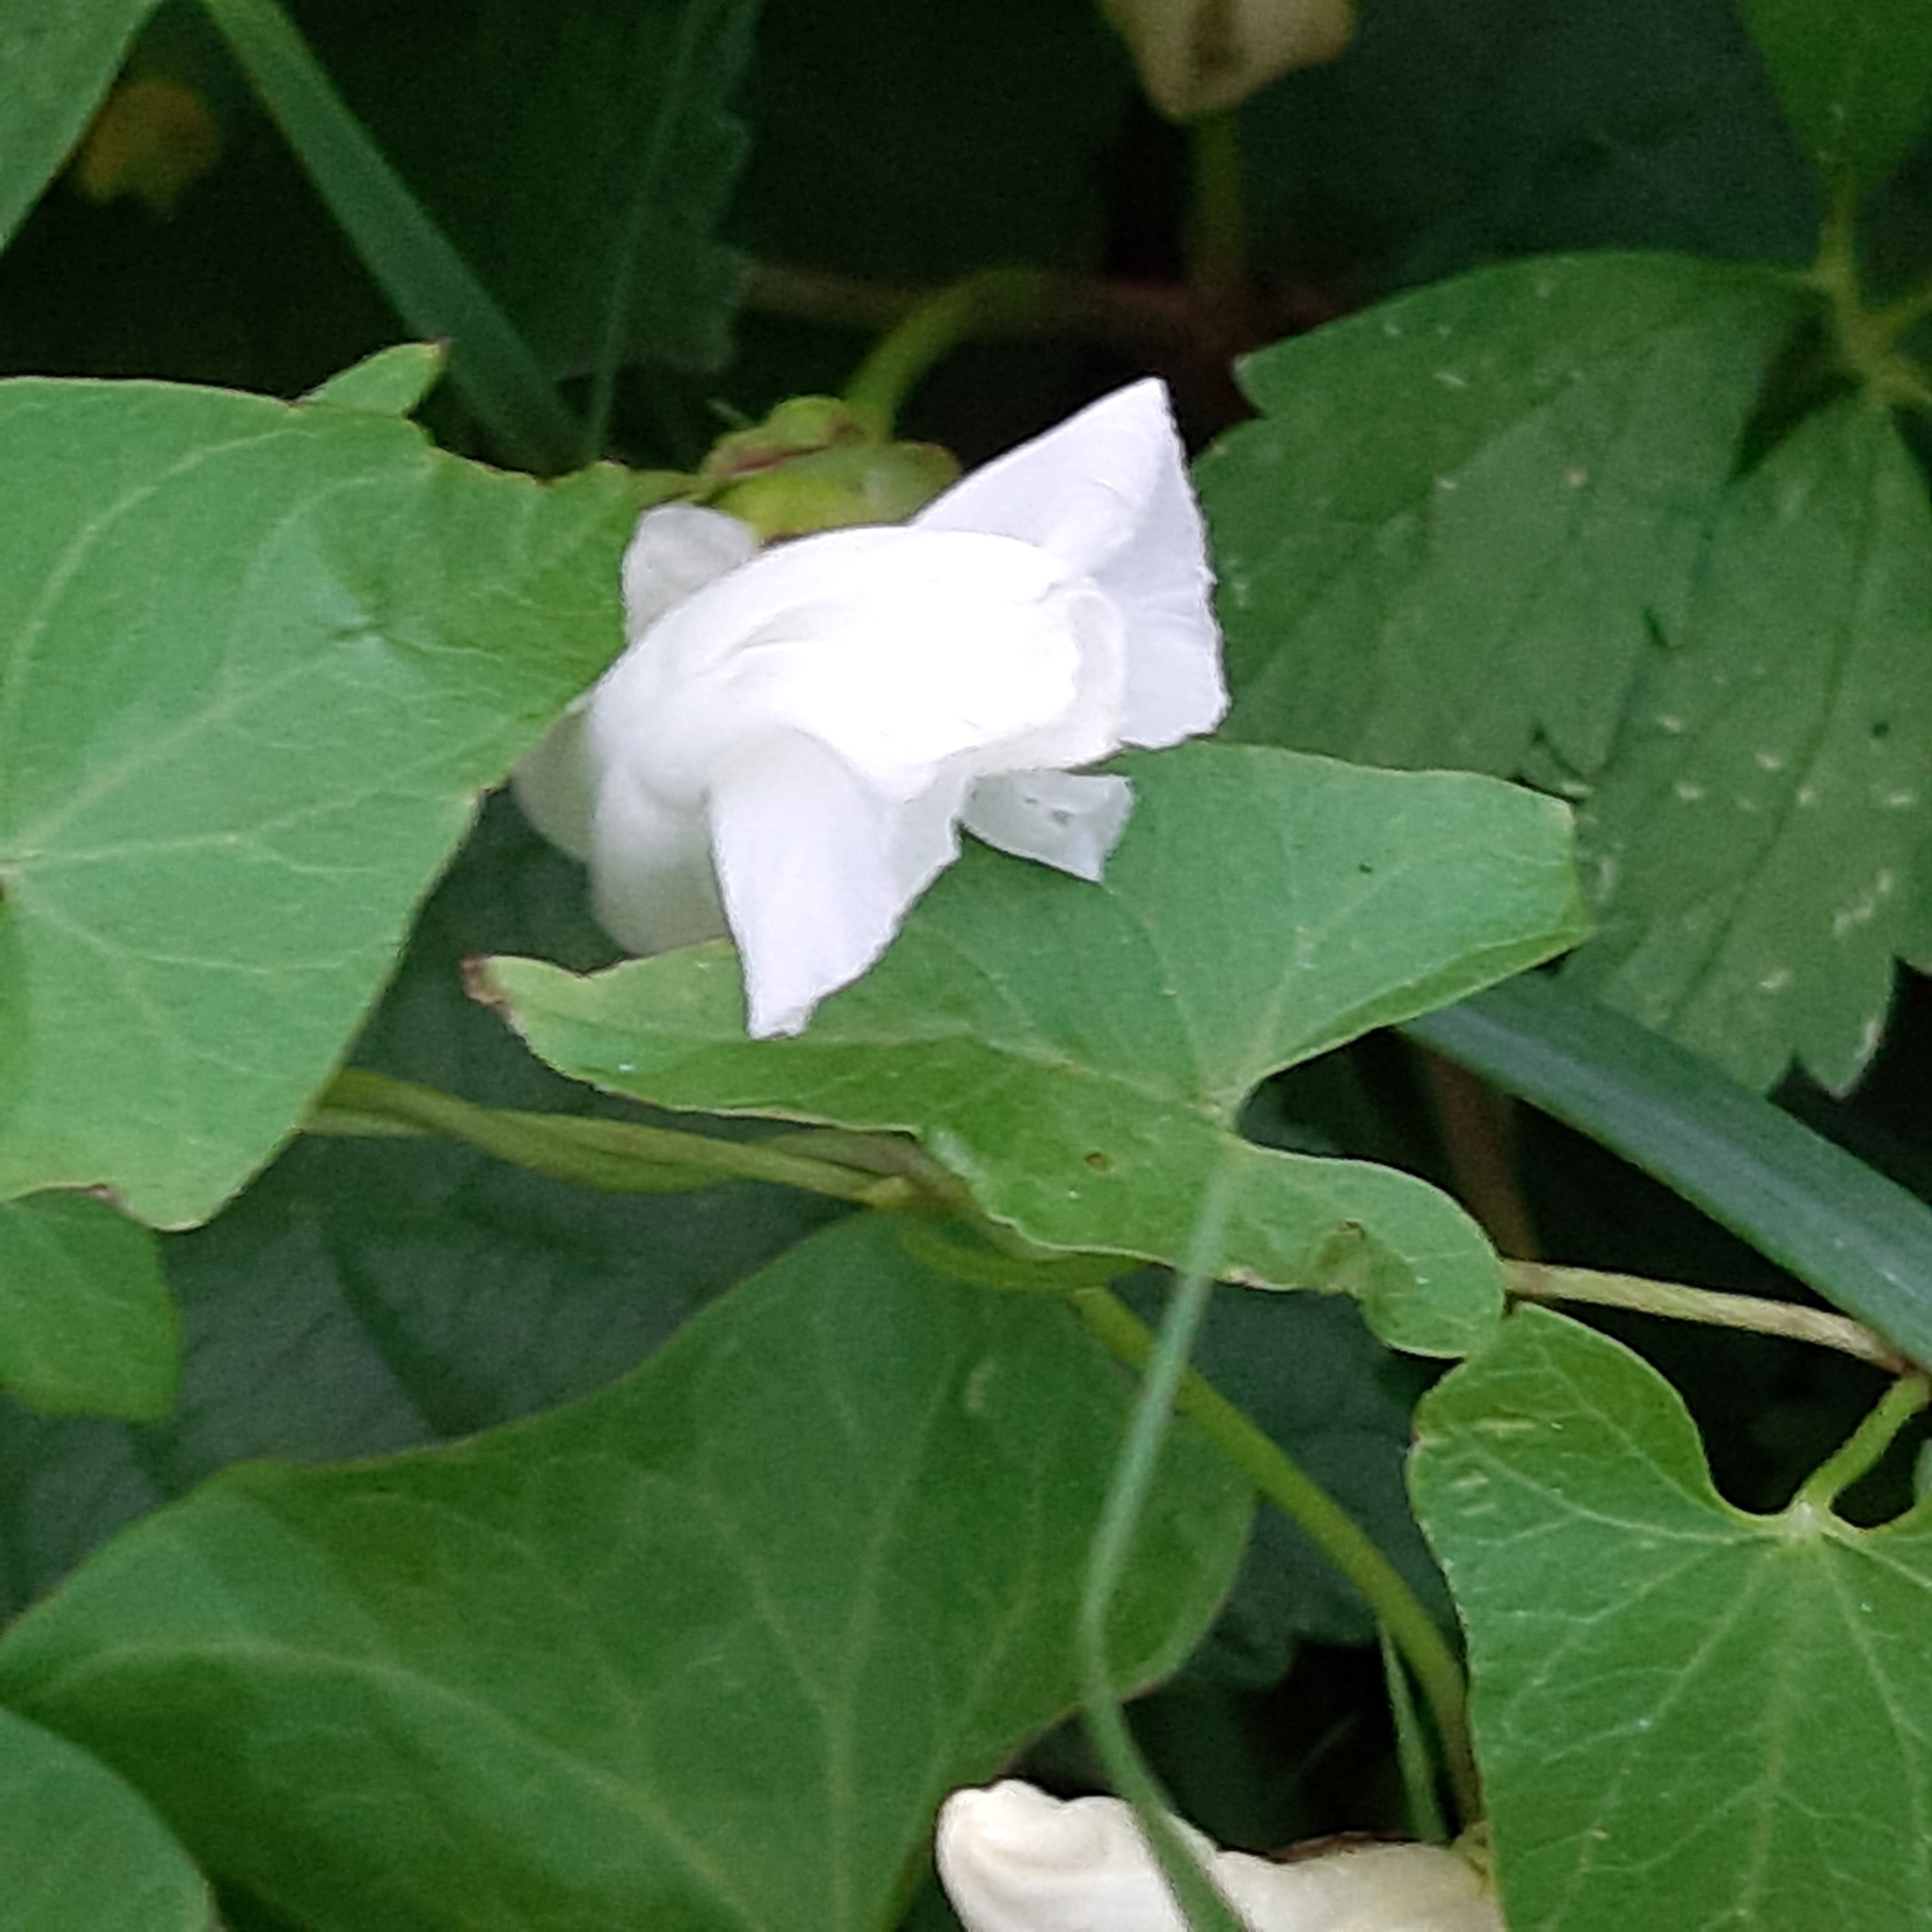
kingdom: Plantae
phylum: Tracheophyta
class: Magnoliopsida
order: Solanales
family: Convolvulaceae
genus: Calystegia
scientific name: Calystegia sepium
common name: Hedge bindweed
